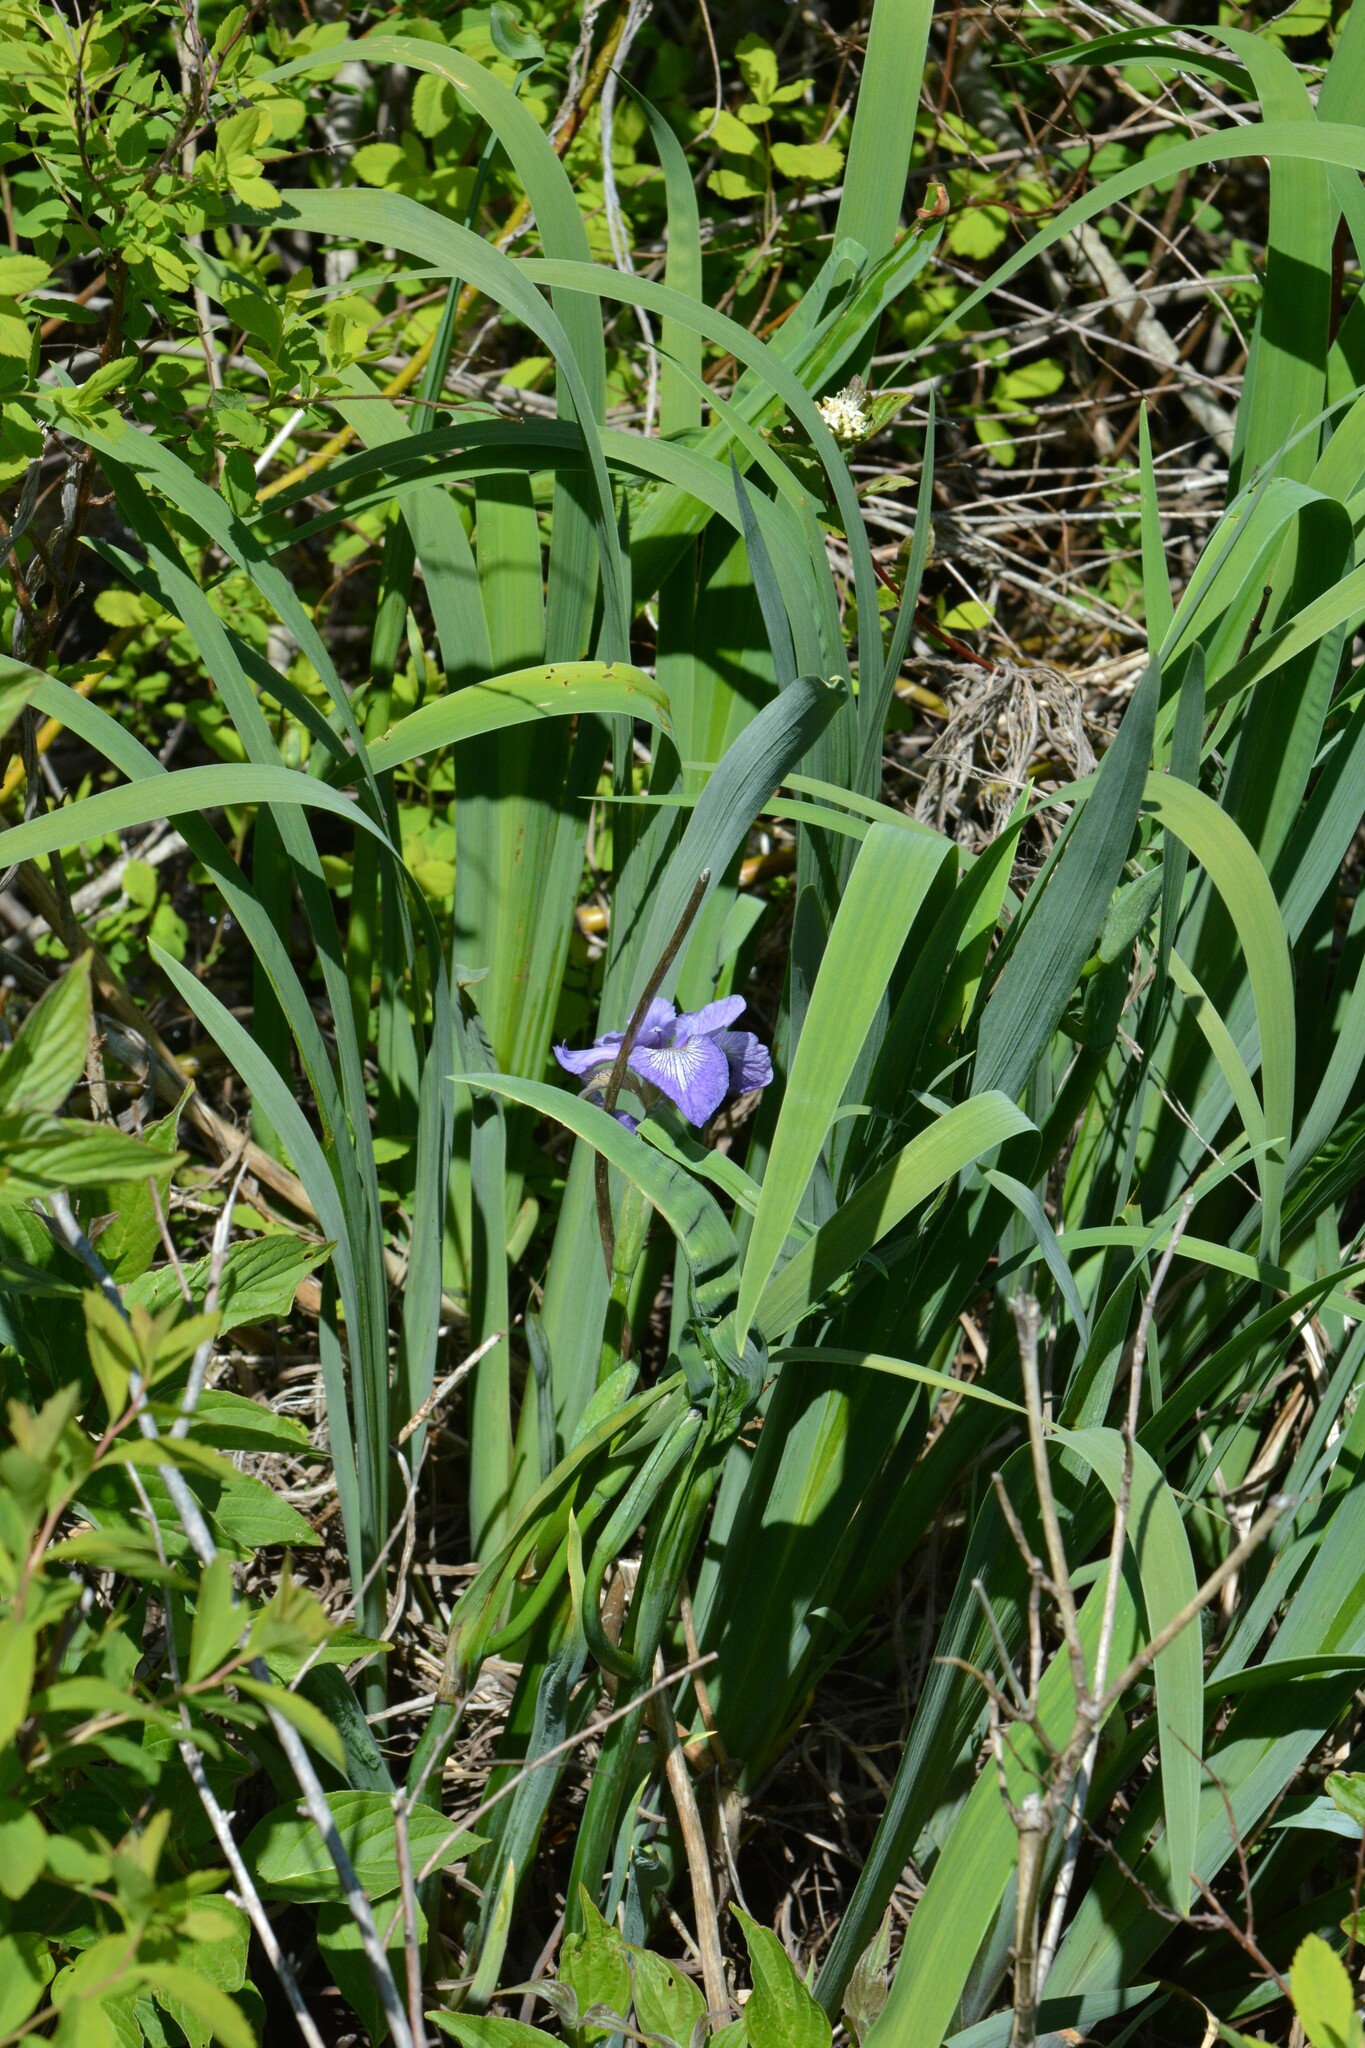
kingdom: Plantae
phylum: Tracheophyta
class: Liliopsida
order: Asparagales
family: Iridaceae
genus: Iris
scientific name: Iris versicolor
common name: Purple iris
